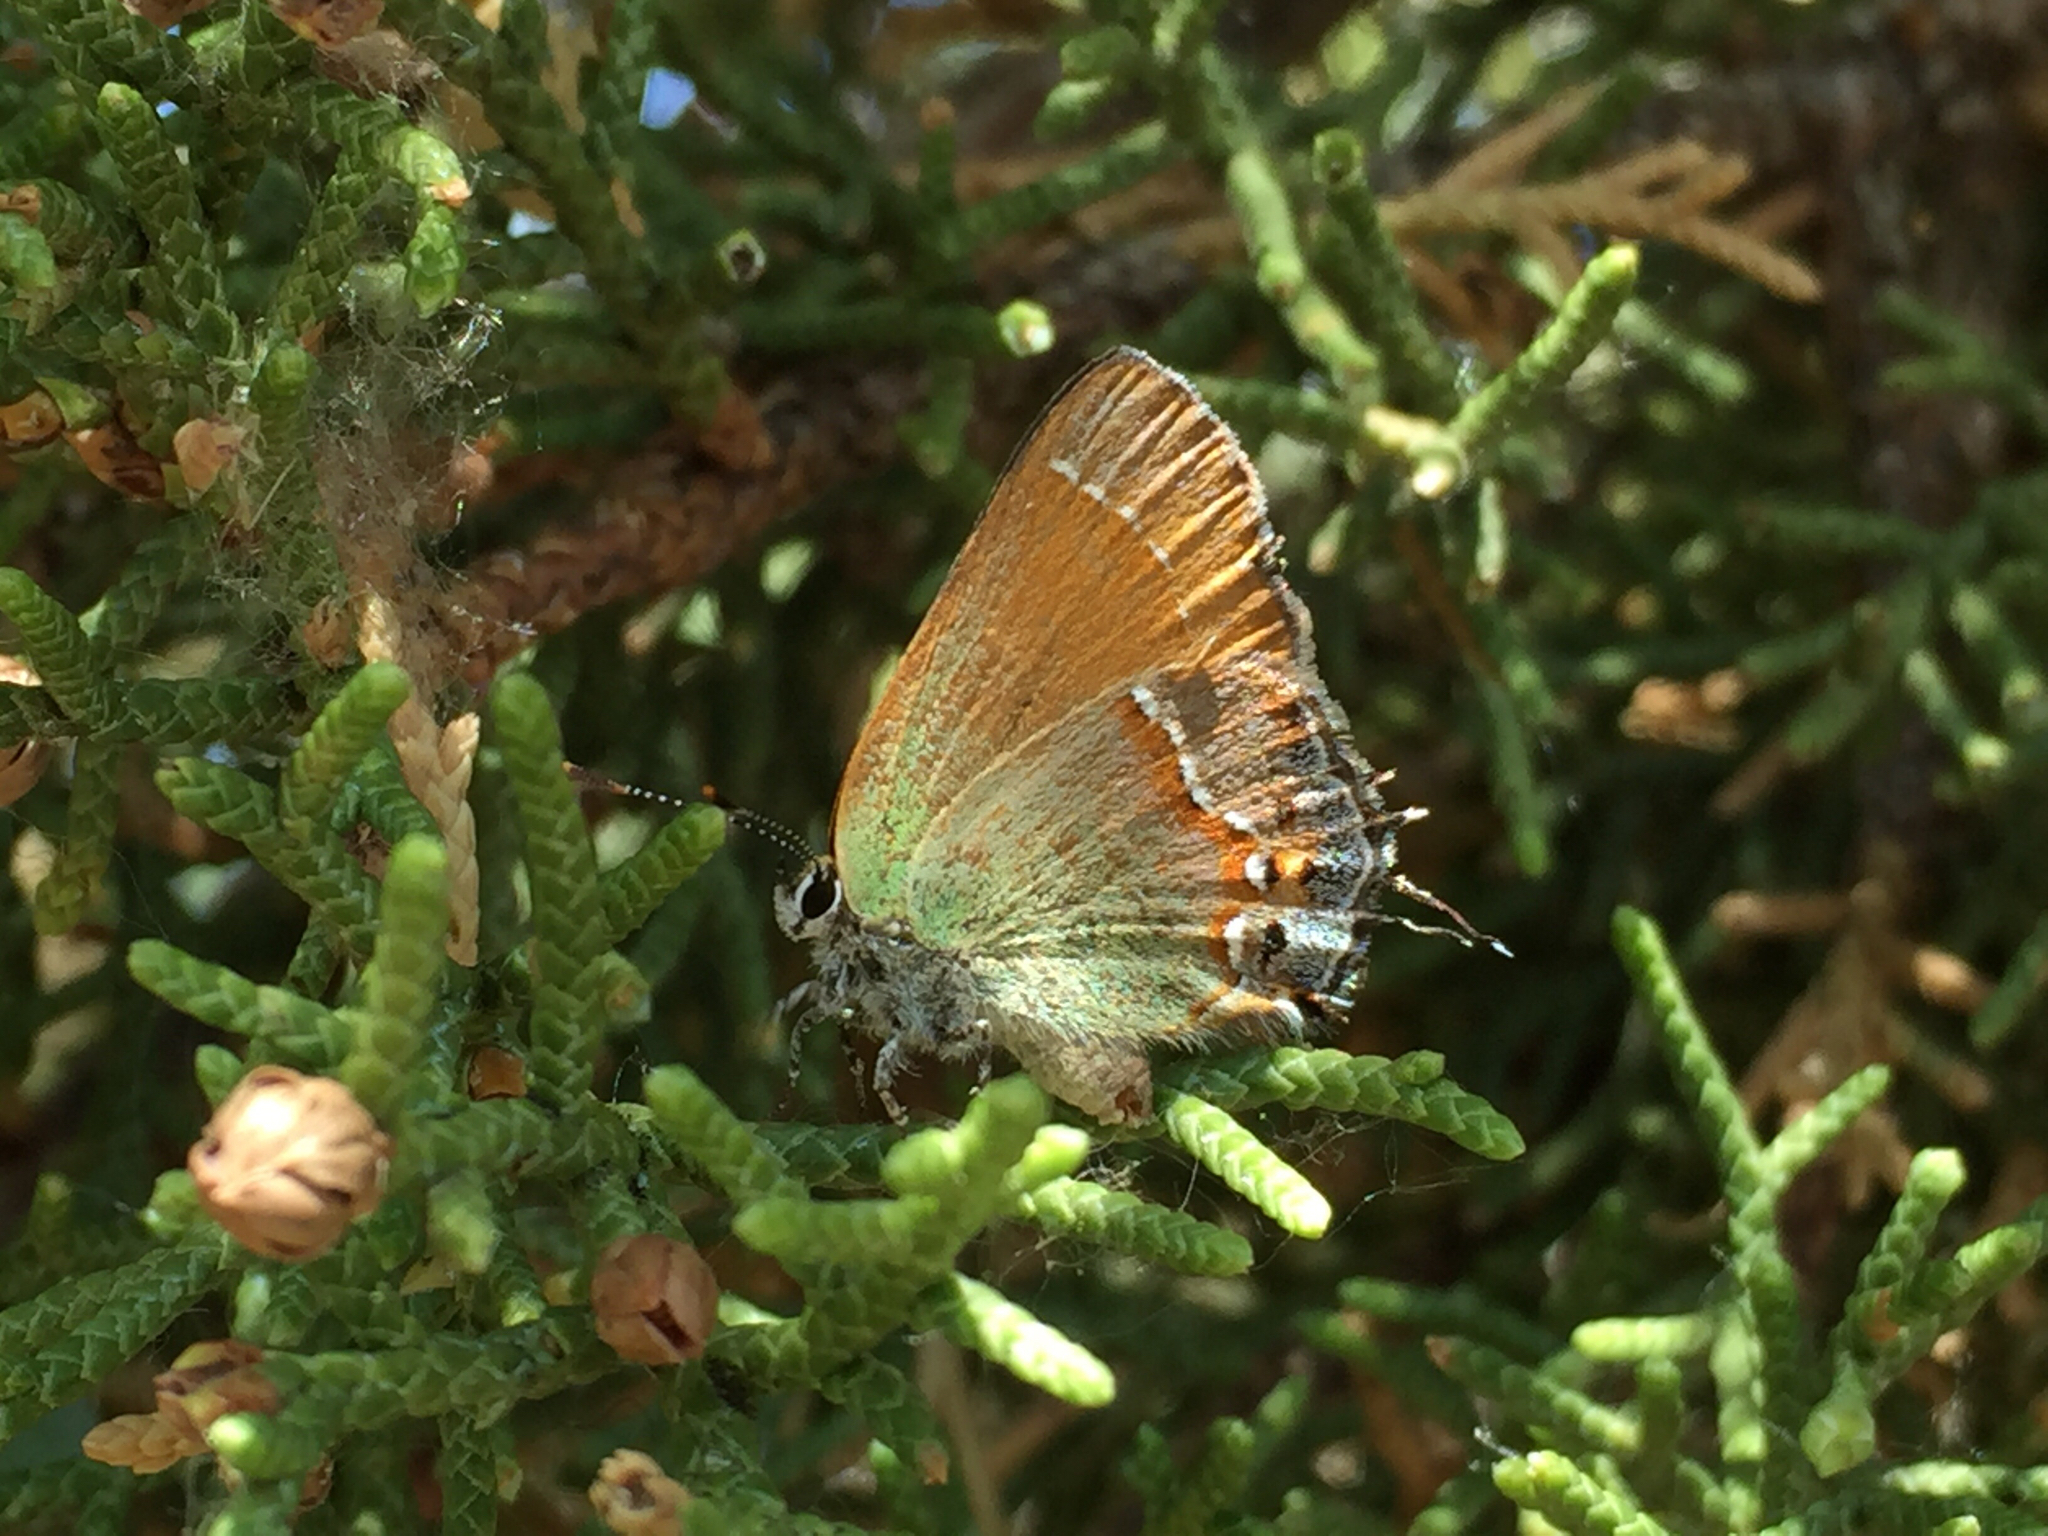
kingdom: Animalia
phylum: Arthropoda
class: Insecta
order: Lepidoptera
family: Lycaenidae
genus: Mitoura
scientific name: Mitoura siva
